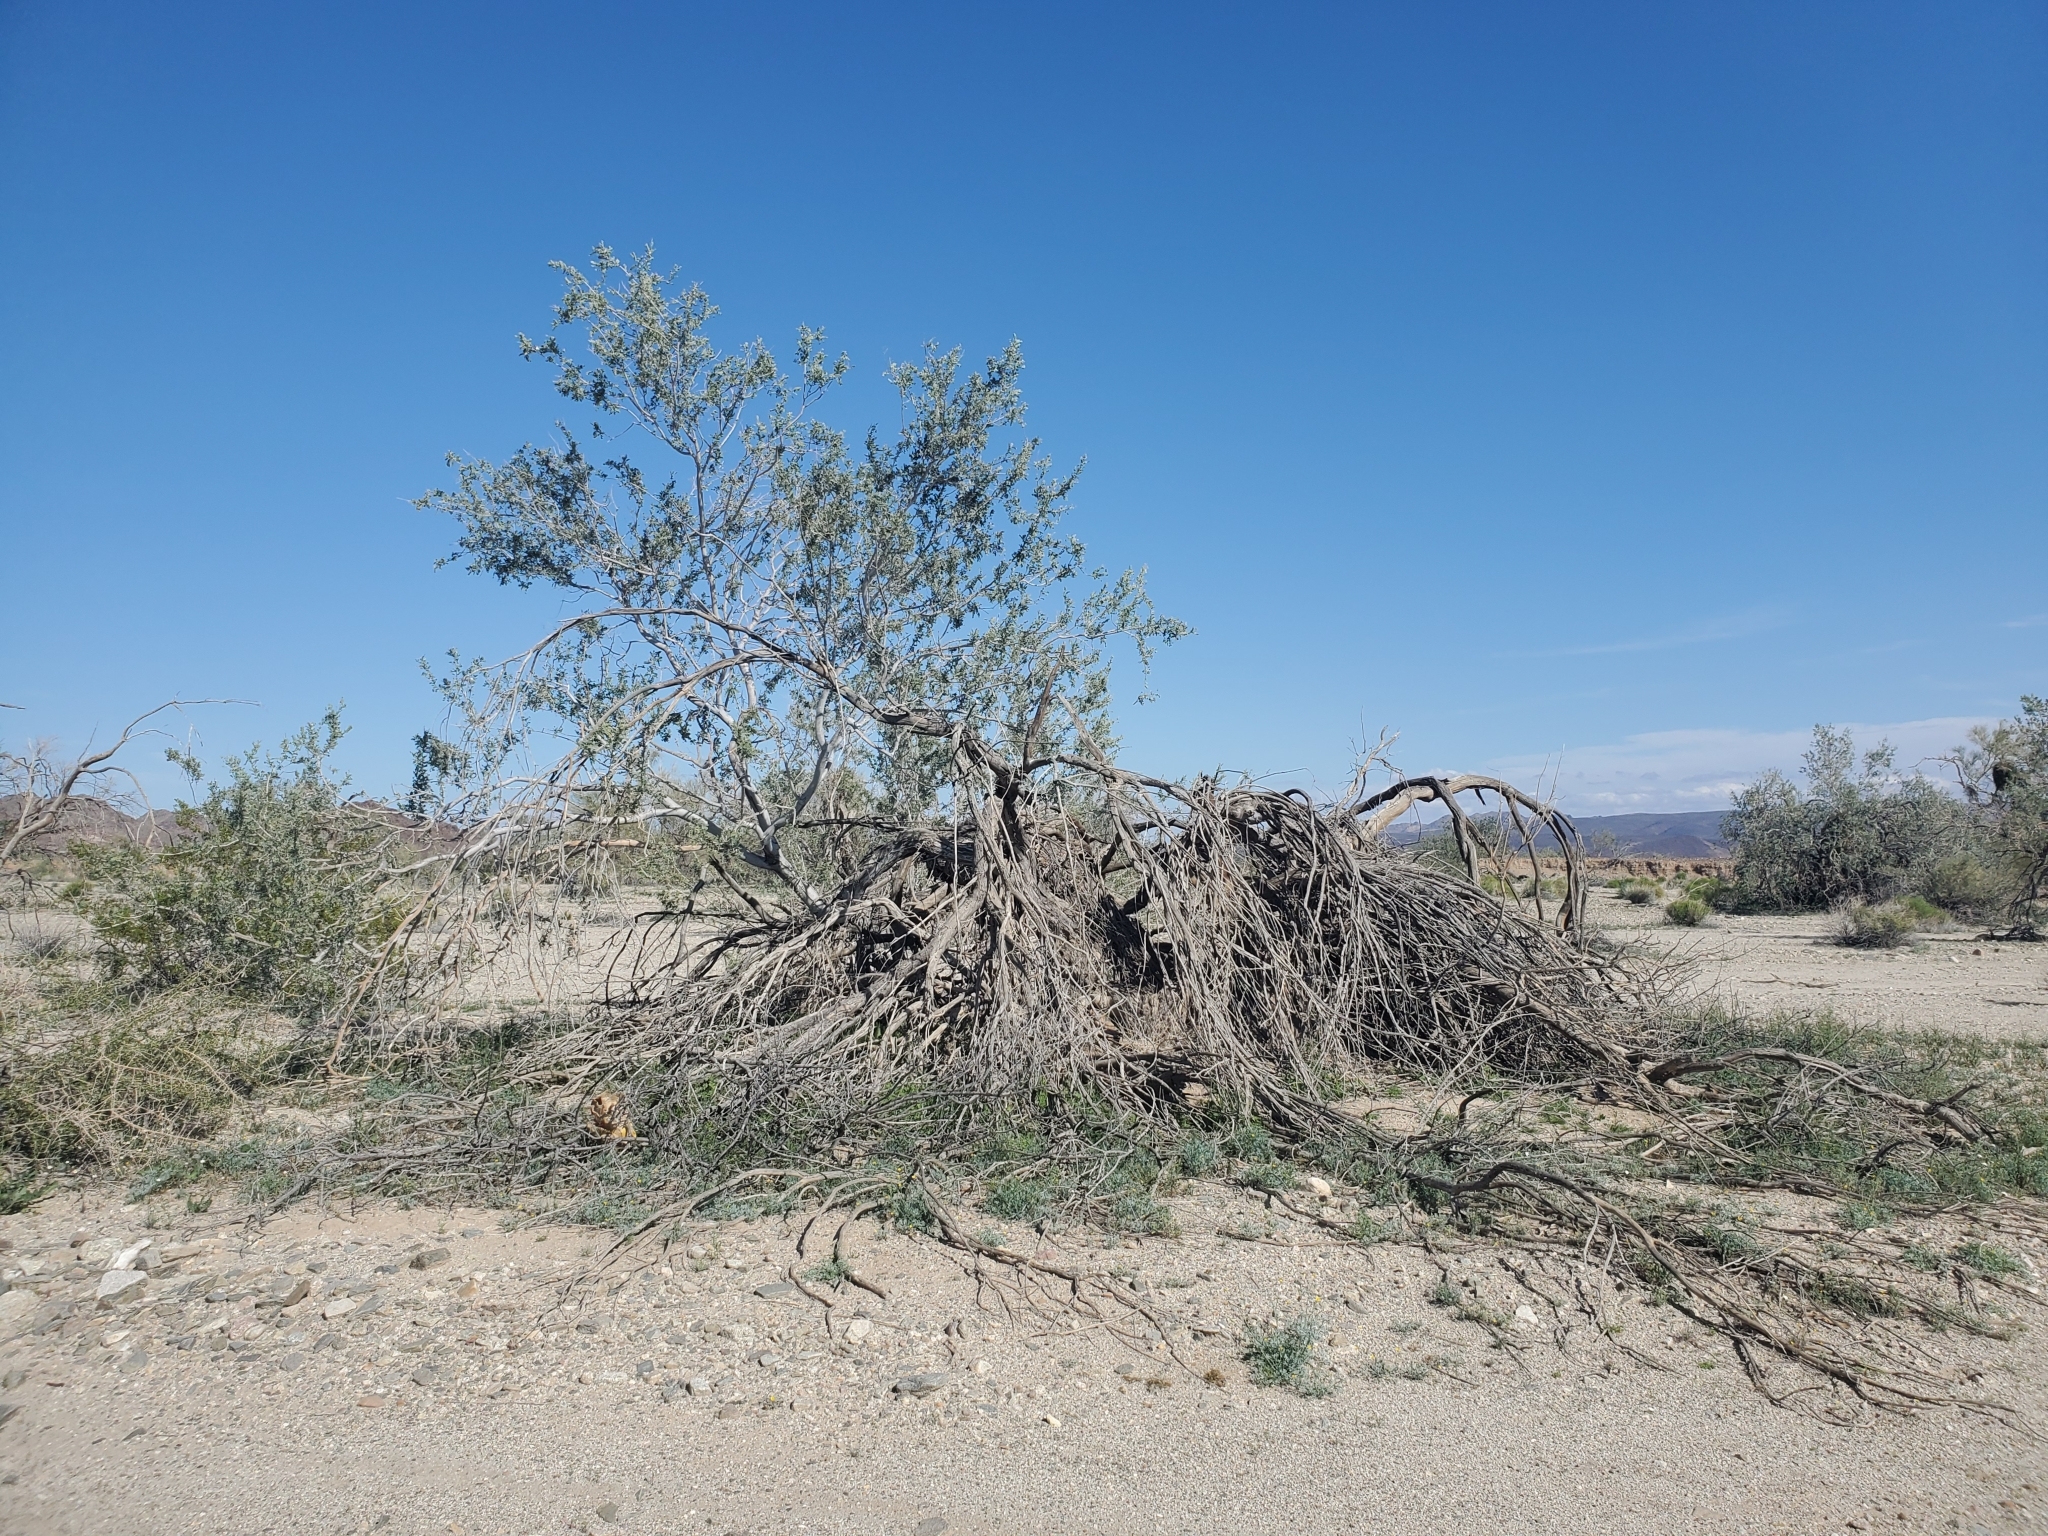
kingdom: Plantae
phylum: Tracheophyta
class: Magnoliopsida
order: Fabales
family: Fabaceae
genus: Olneya
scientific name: Olneya tesota
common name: Desert ironwood
